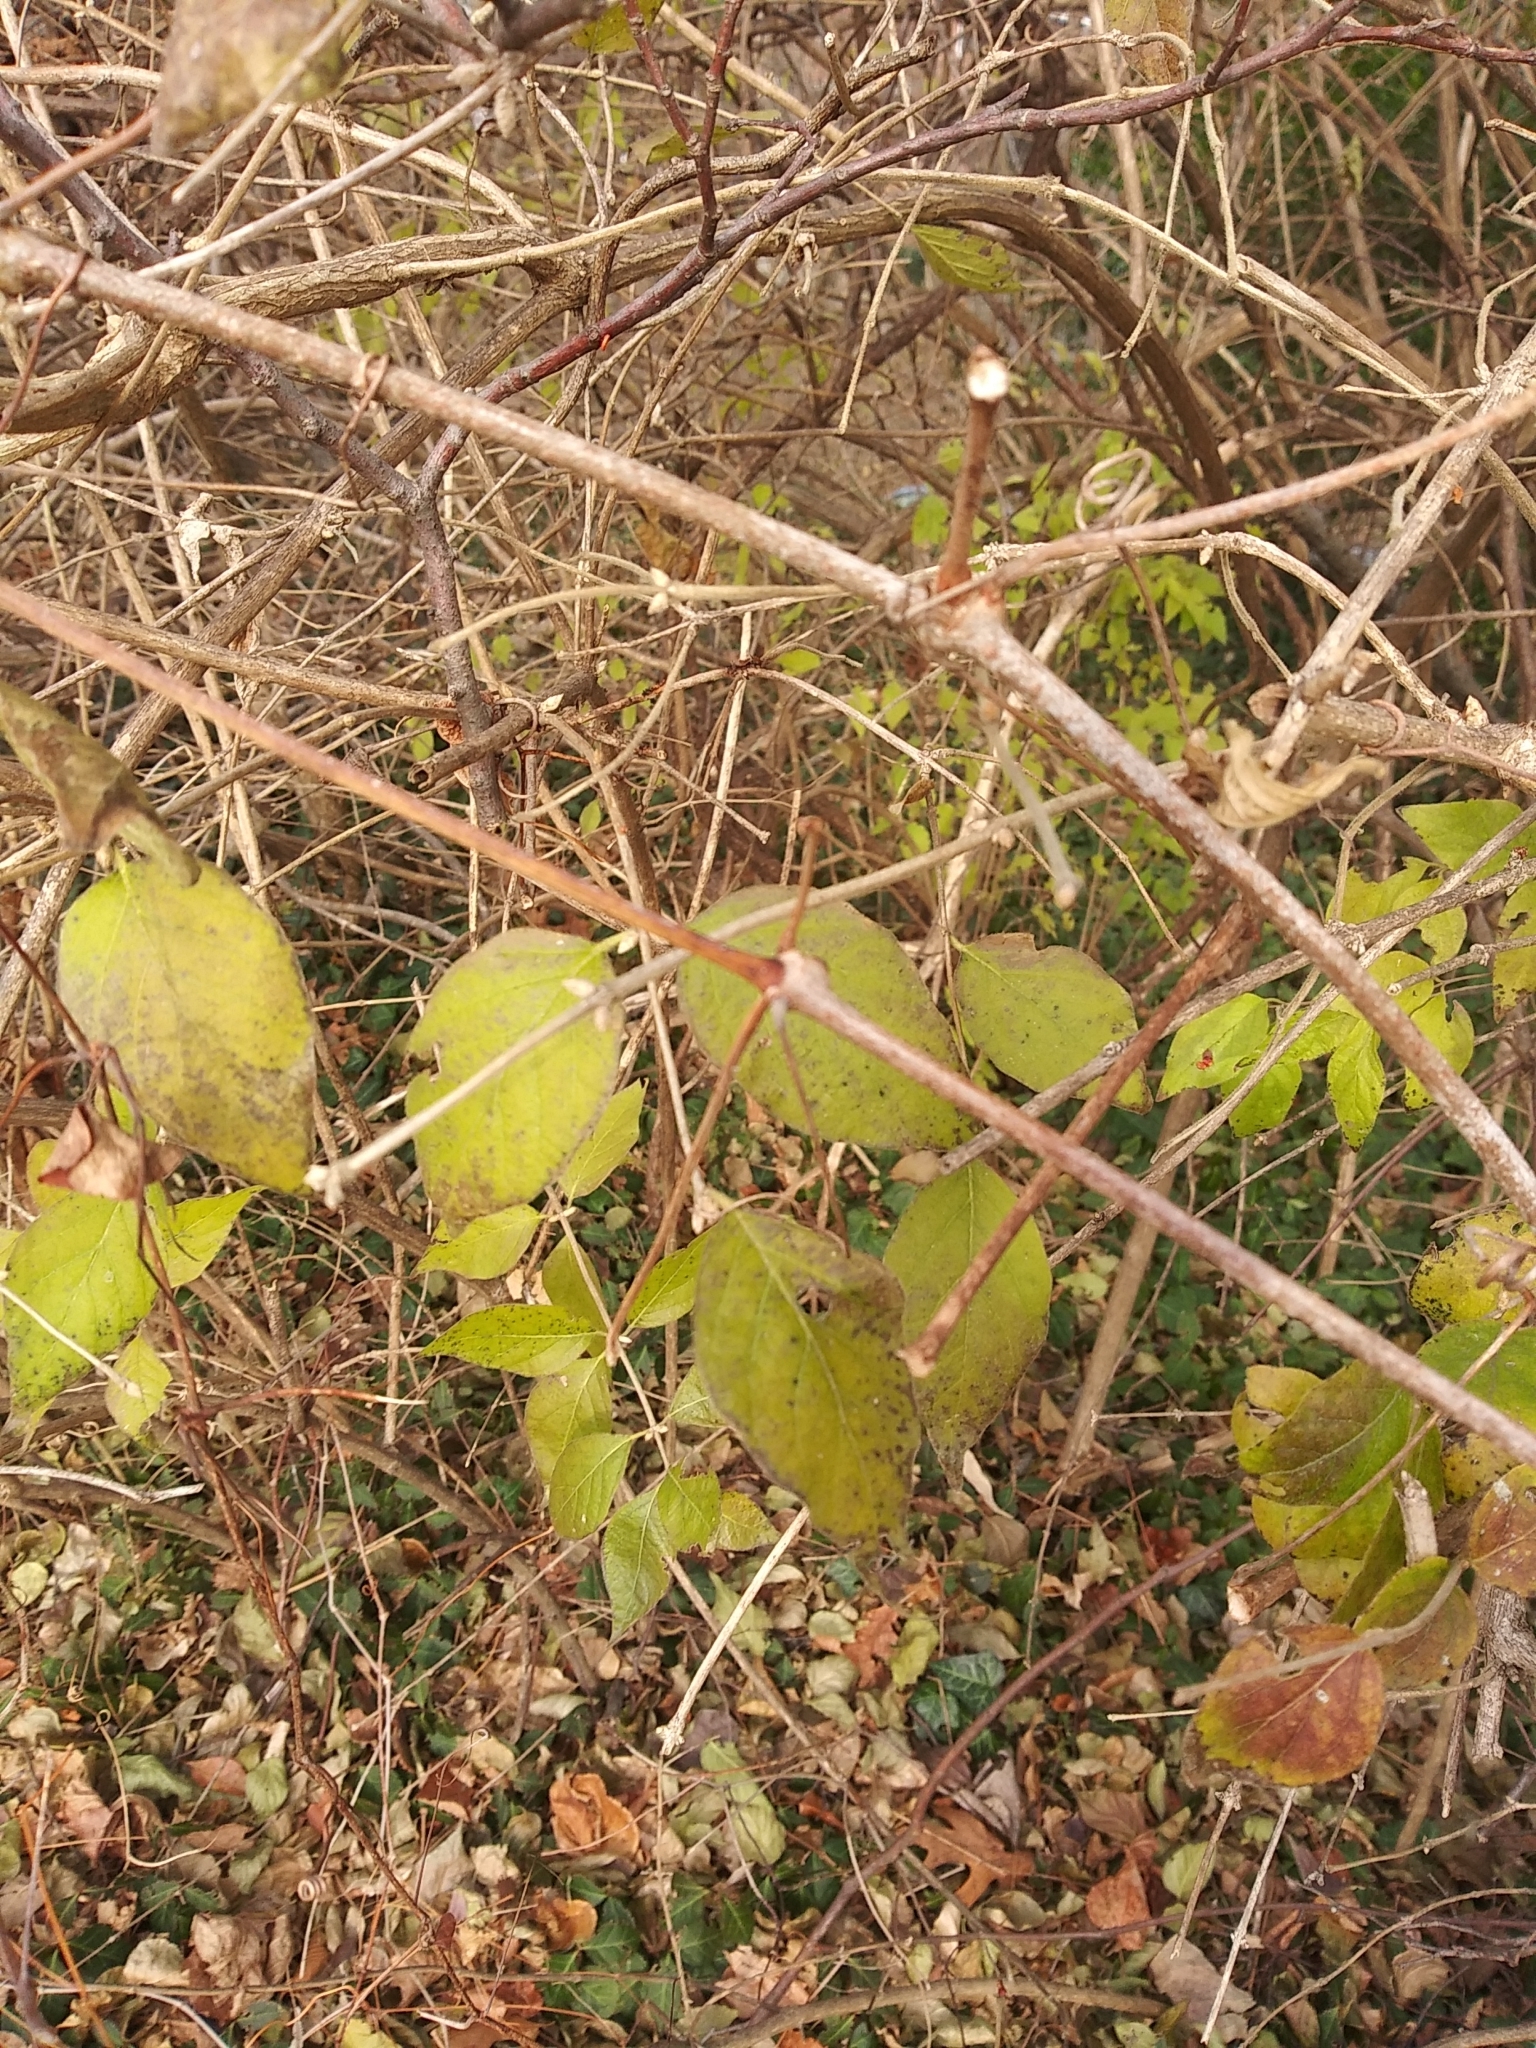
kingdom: Plantae
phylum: Tracheophyta
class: Magnoliopsida
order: Dipsacales
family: Caprifoliaceae
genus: Lonicera
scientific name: Lonicera maackii
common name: Amur honeysuckle
